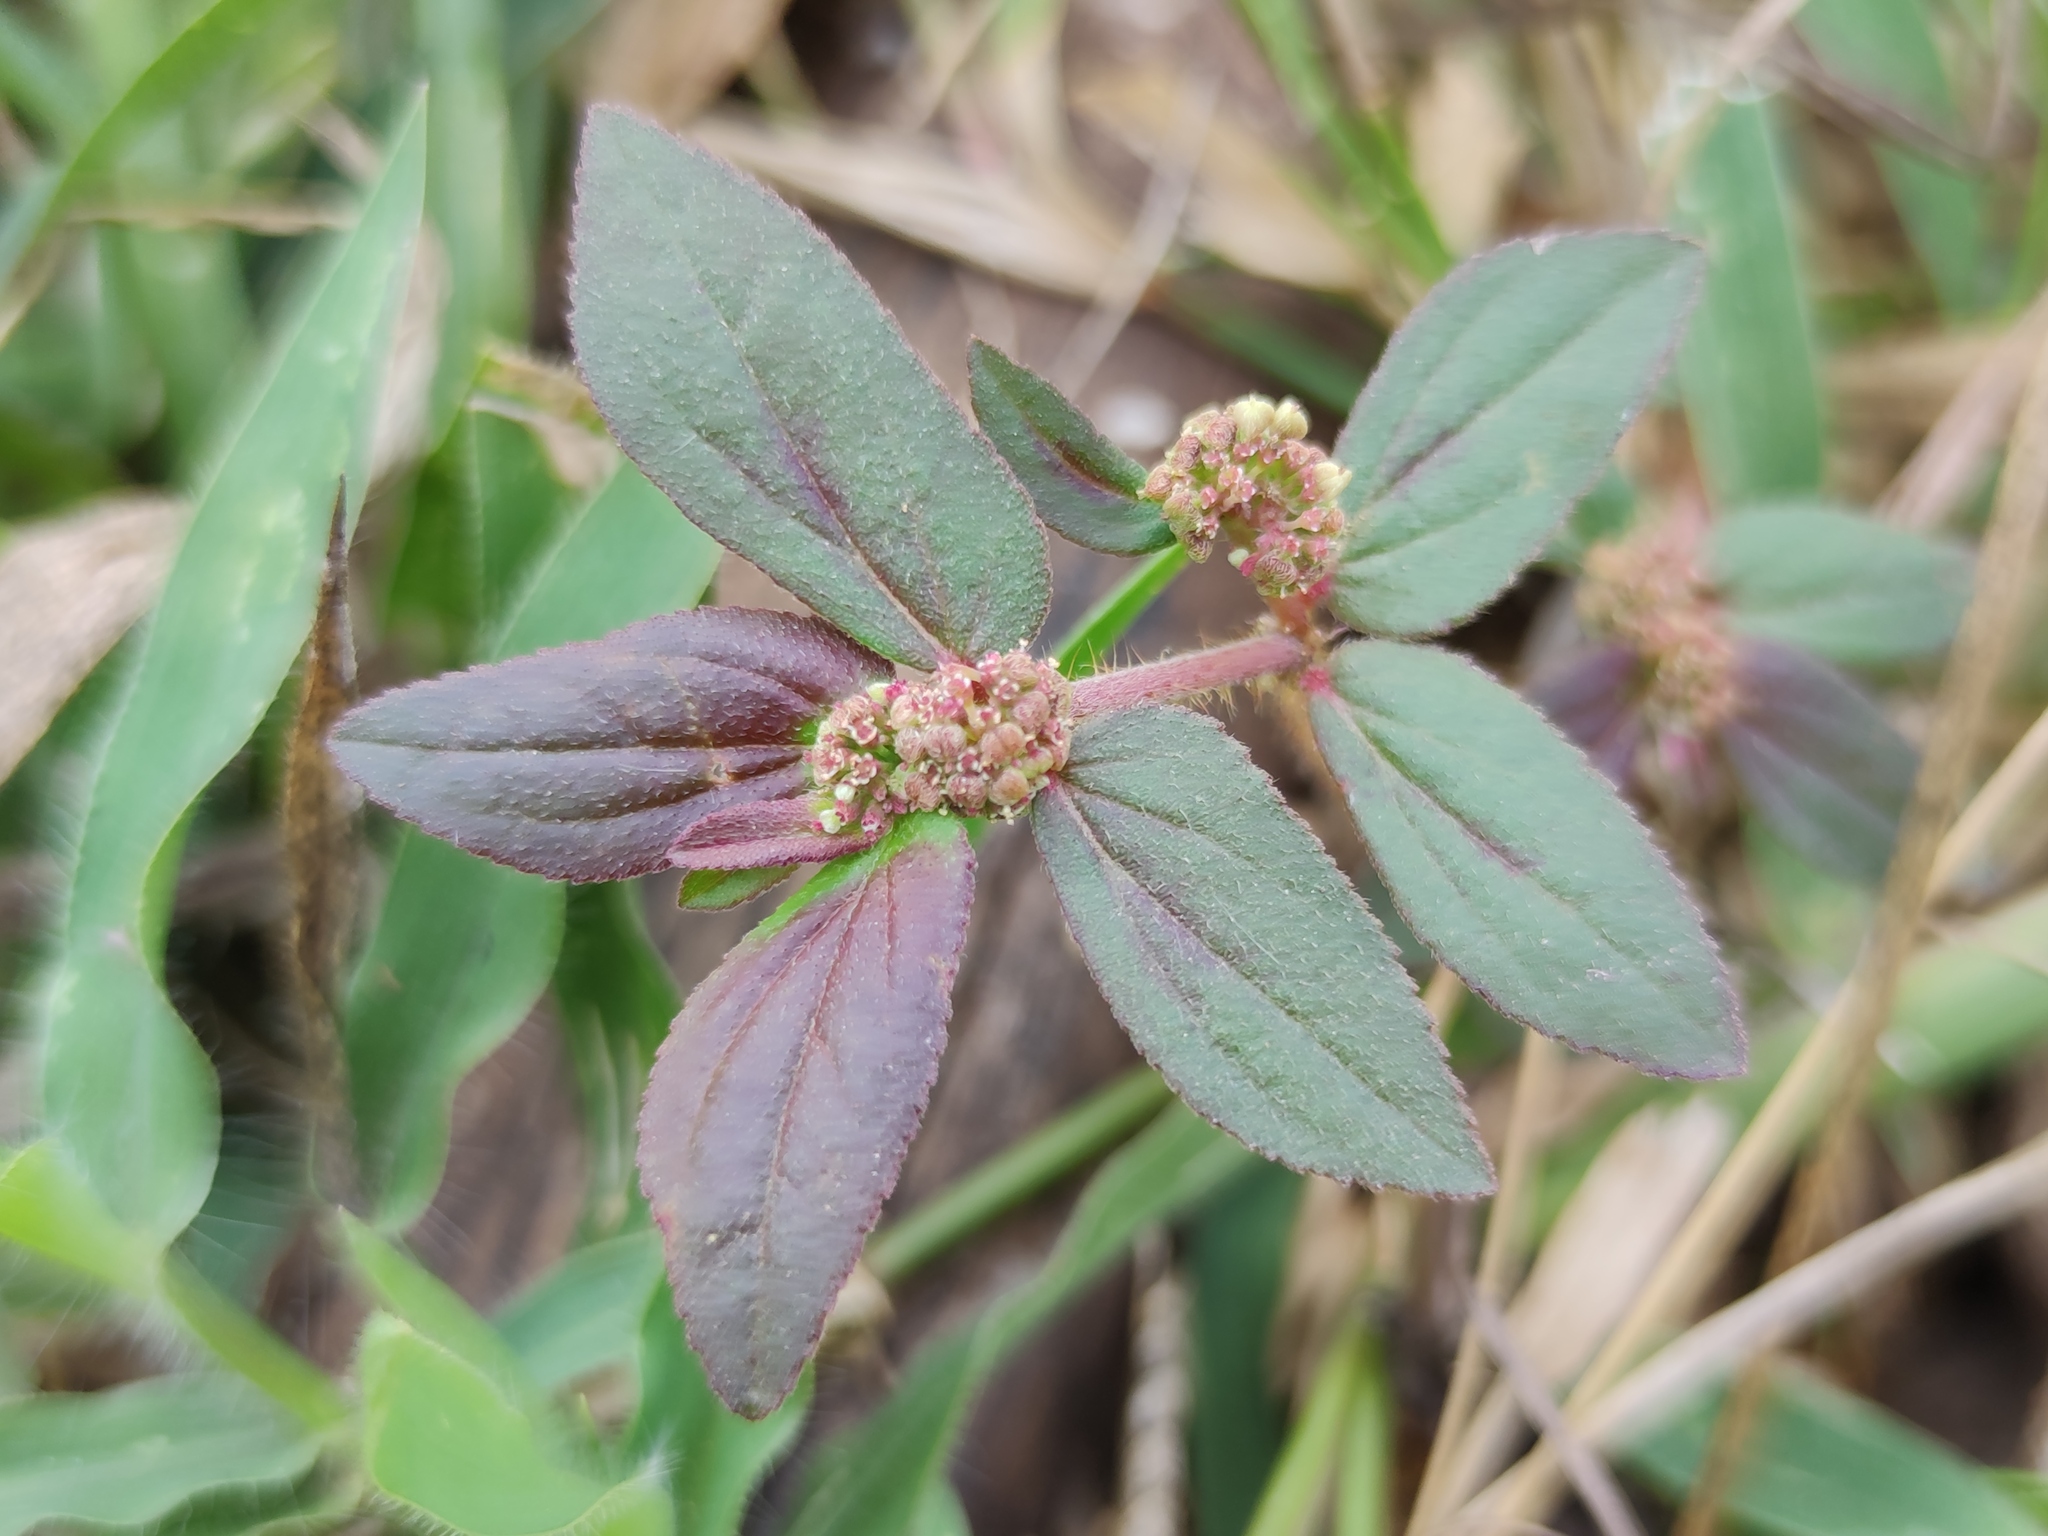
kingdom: Plantae
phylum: Tracheophyta
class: Magnoliopsida
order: Malpighiales
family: Euphorbiaceae
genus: Euphorbia
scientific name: Euphorbia hirta
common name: Pillpod sandmat
